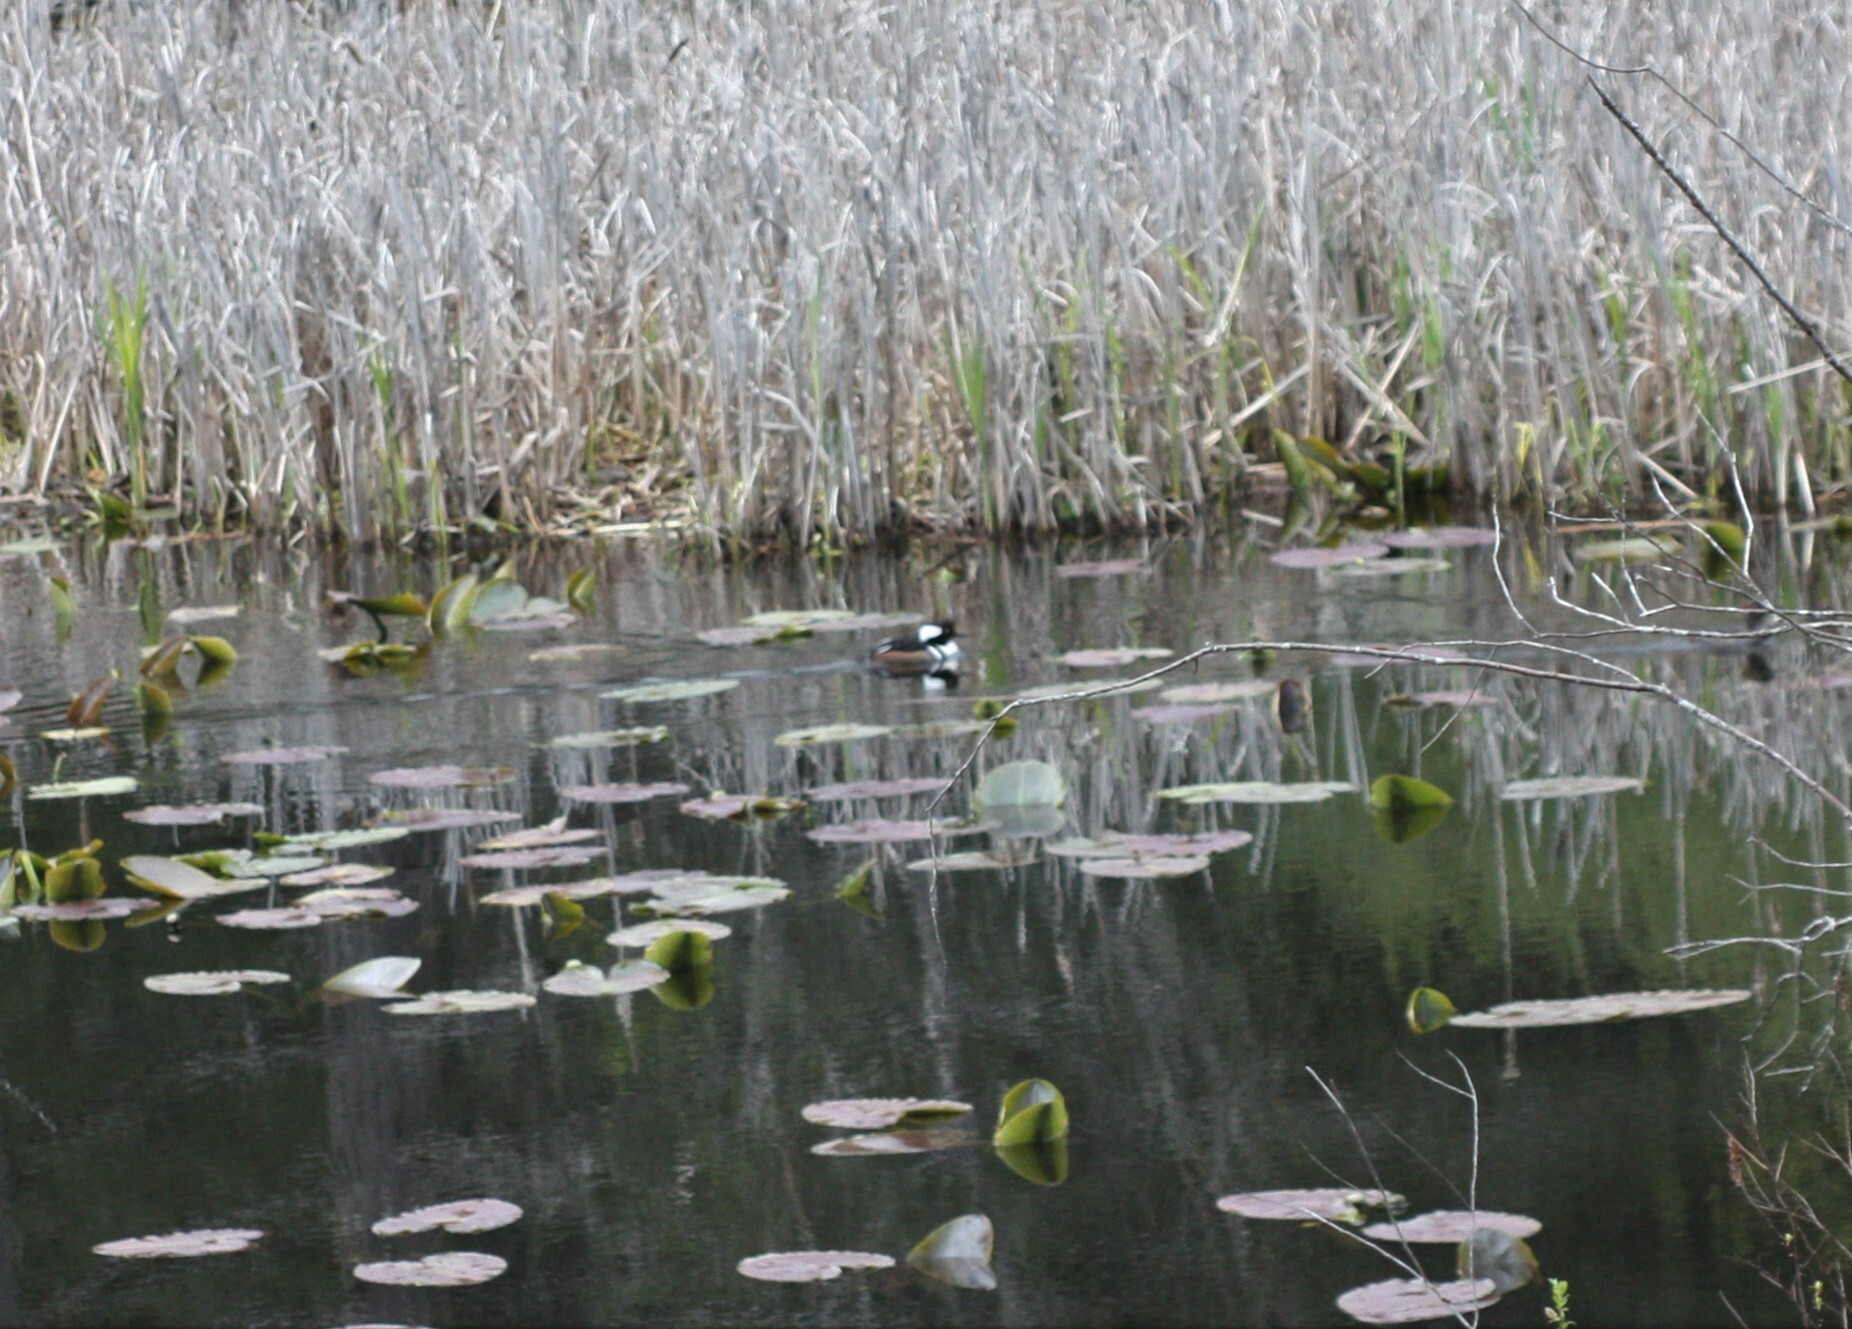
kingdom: Animalia
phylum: Chordata
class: Aves
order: Anseriformes
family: Anatidae
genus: Lophodytes
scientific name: Lophodytes cucullatus
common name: Hooded merganser
